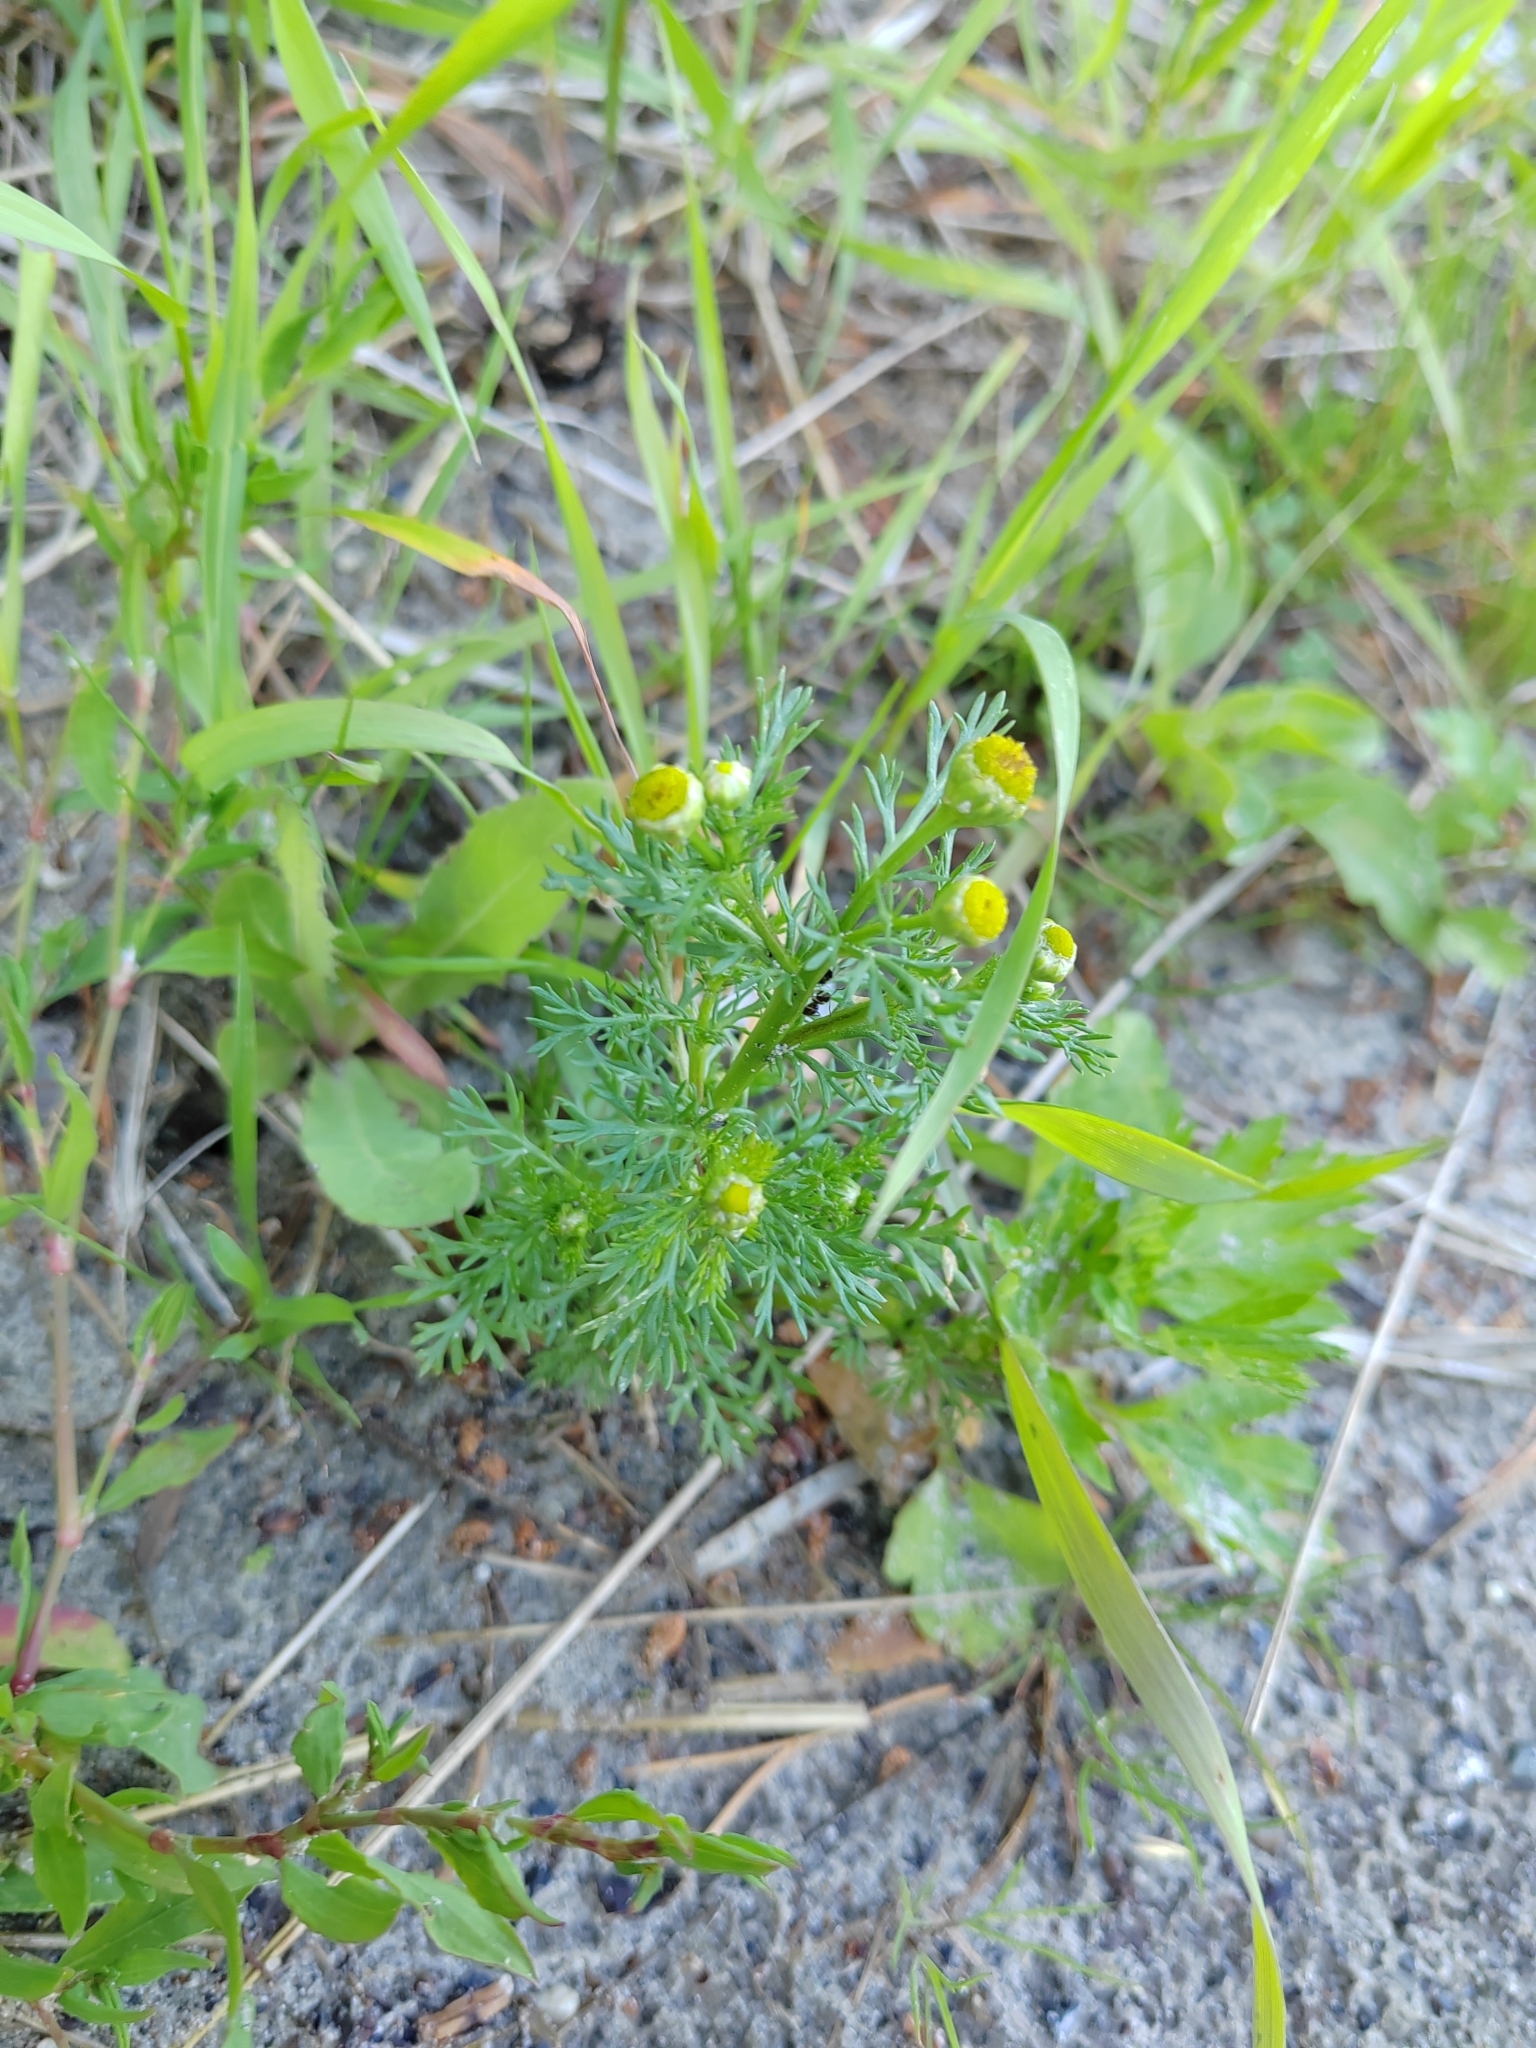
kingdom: Plantae
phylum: Tracheophyta
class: Magnoliopsida
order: Asterales
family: Asteraceae
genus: Matricaria
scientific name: Matricaria discoidea
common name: Disc mayweed
